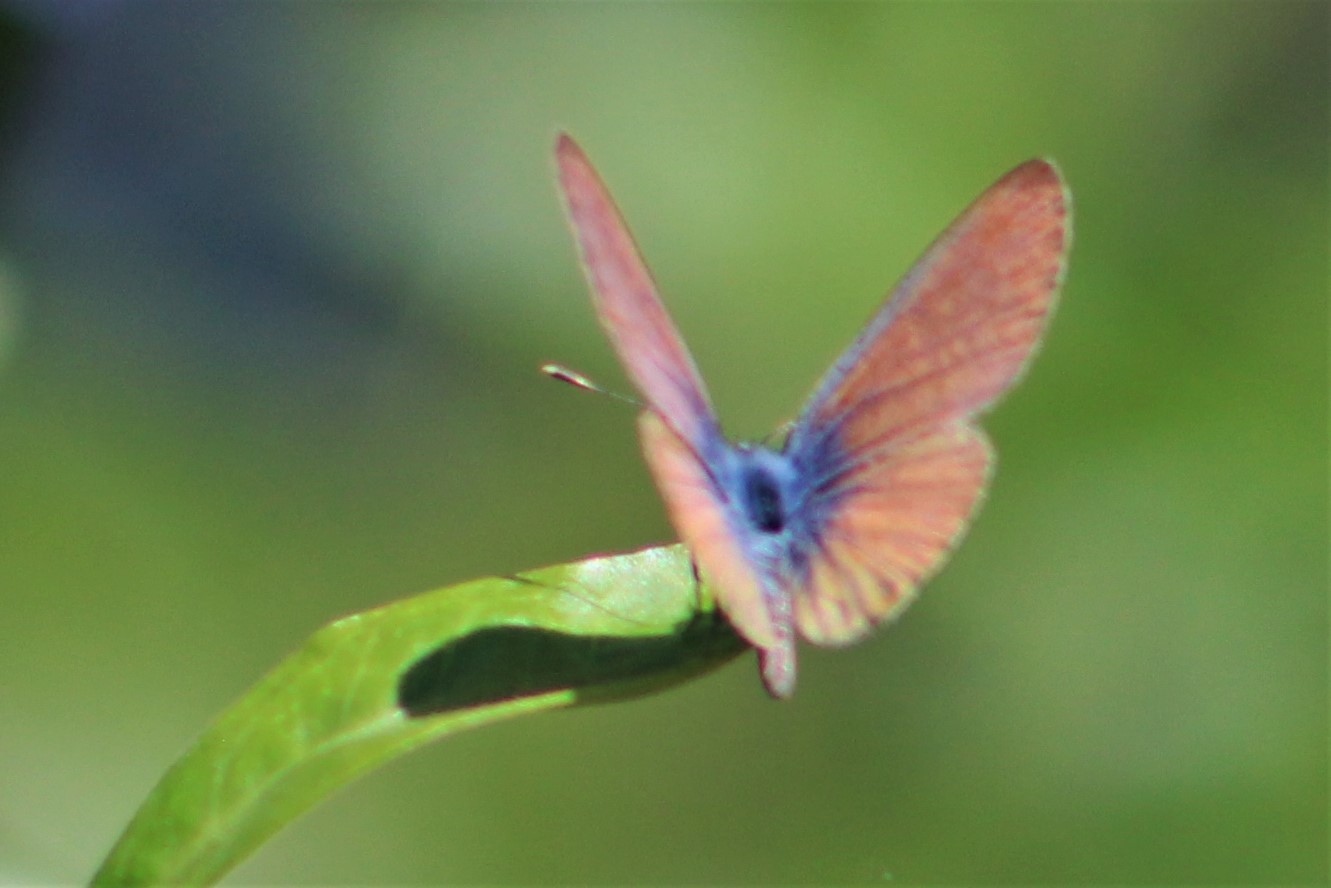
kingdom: Animalia
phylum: Arthropoda
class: Insecta
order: Lepidoptera
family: Lycaenidae
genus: Leptotes
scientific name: Leptotes marina
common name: Marine blue
